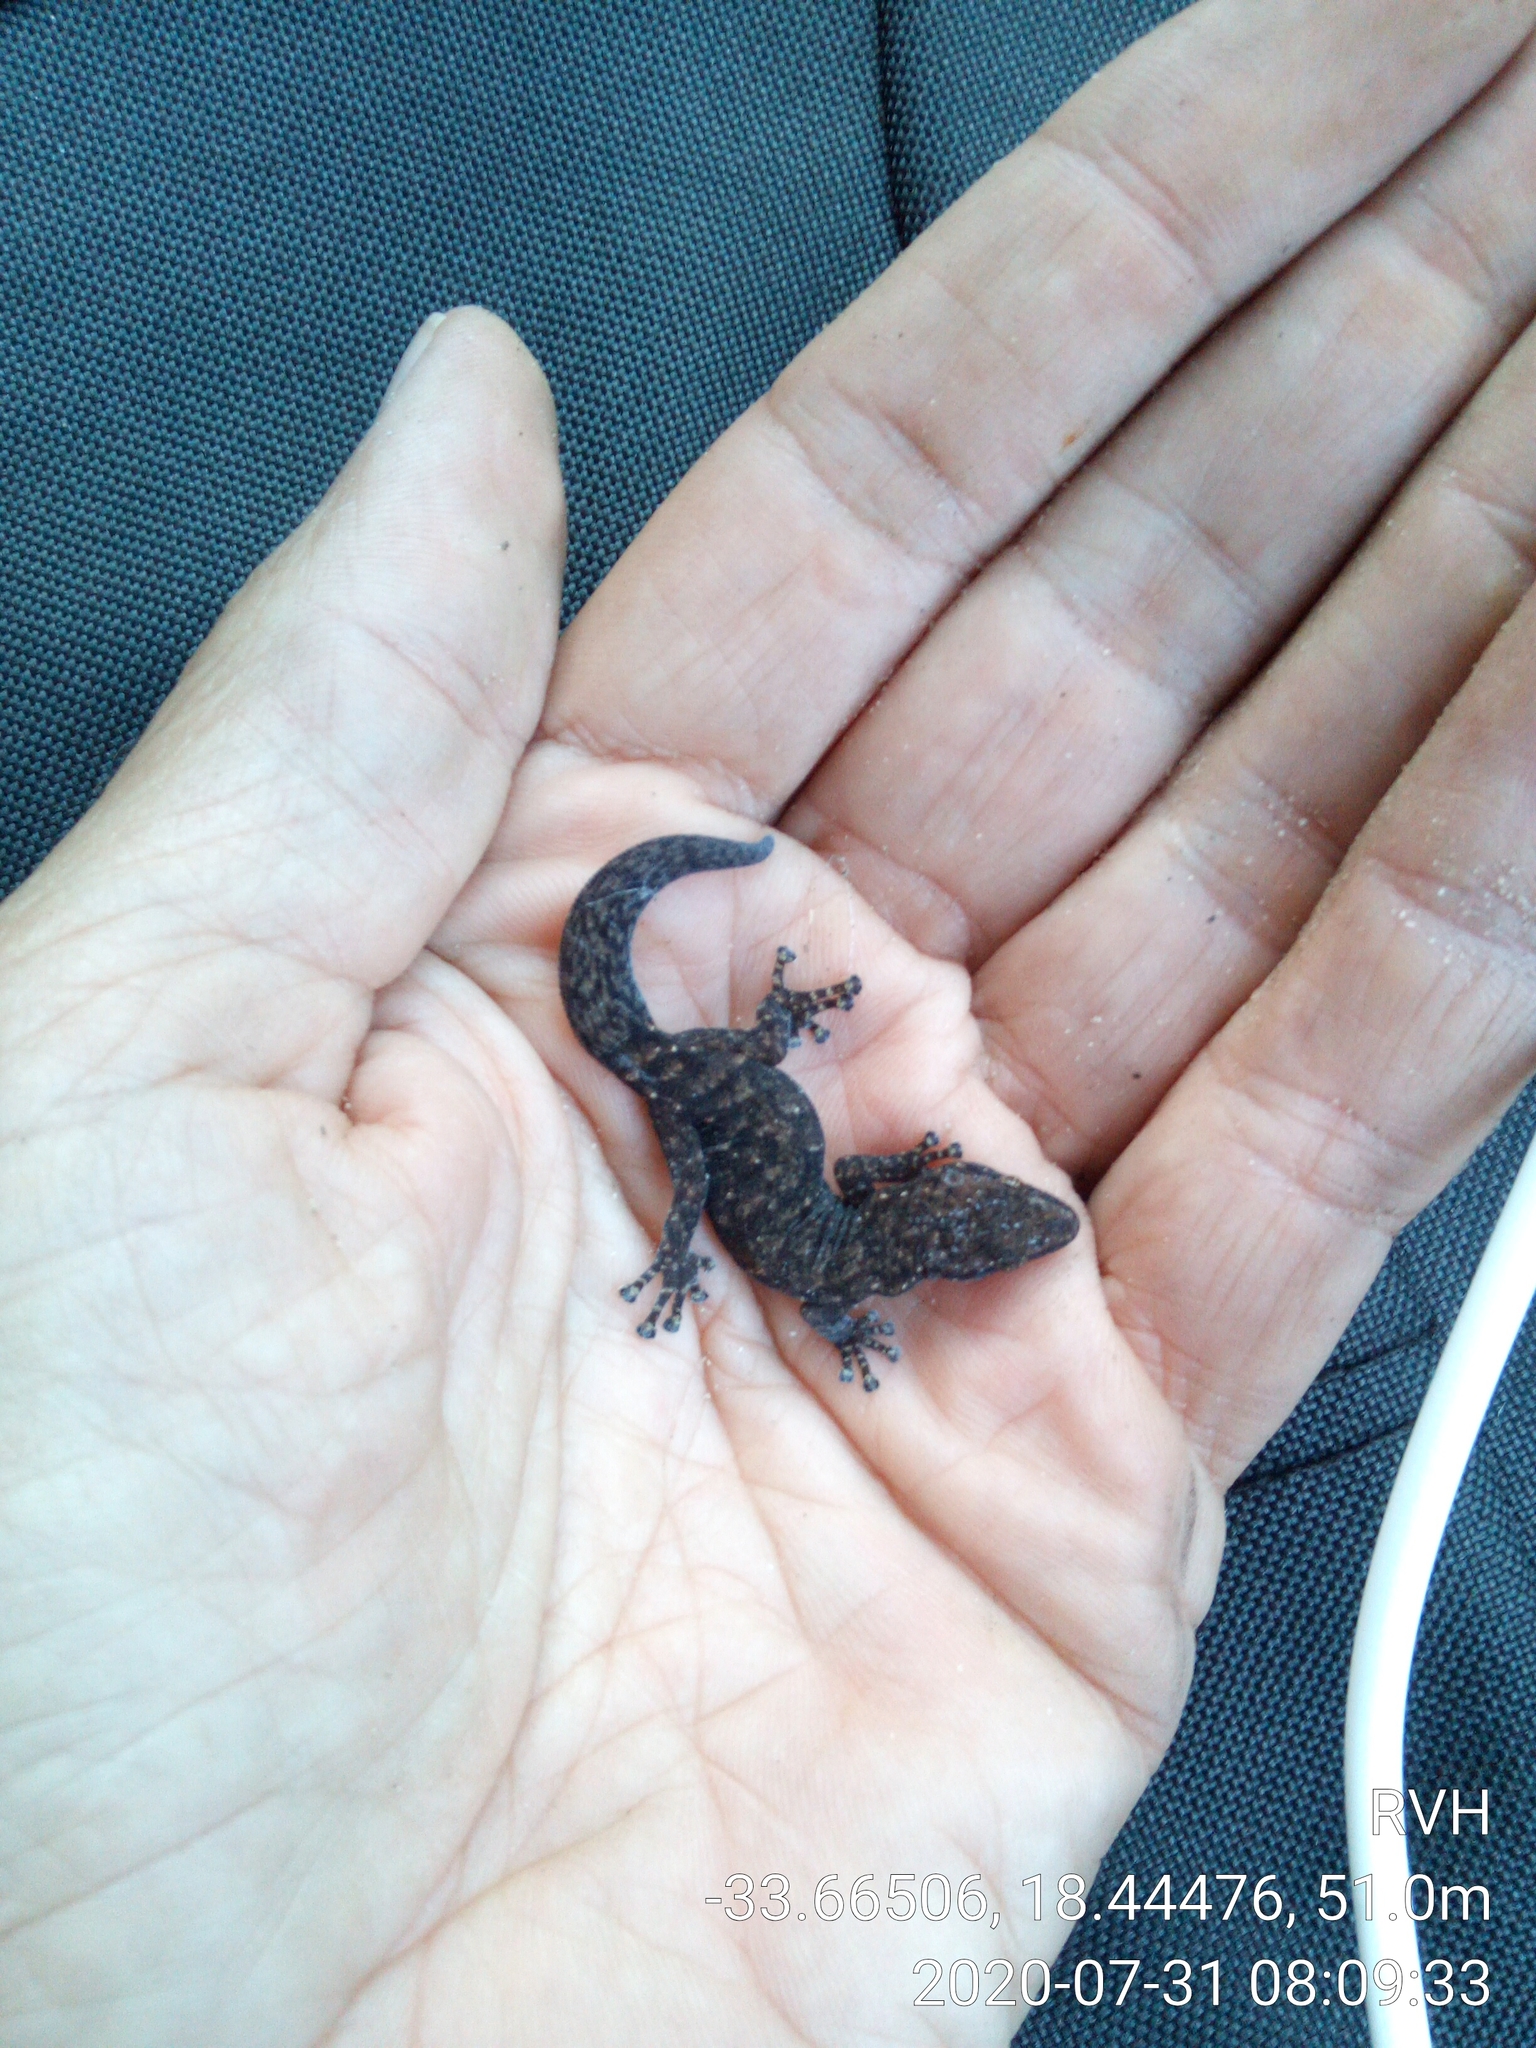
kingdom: Animalia
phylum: Chordata
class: Squamata
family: Gekkonidae
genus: Afrogecko
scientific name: Afrogecko porphyreus
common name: Marbled leaf-toed gecko
